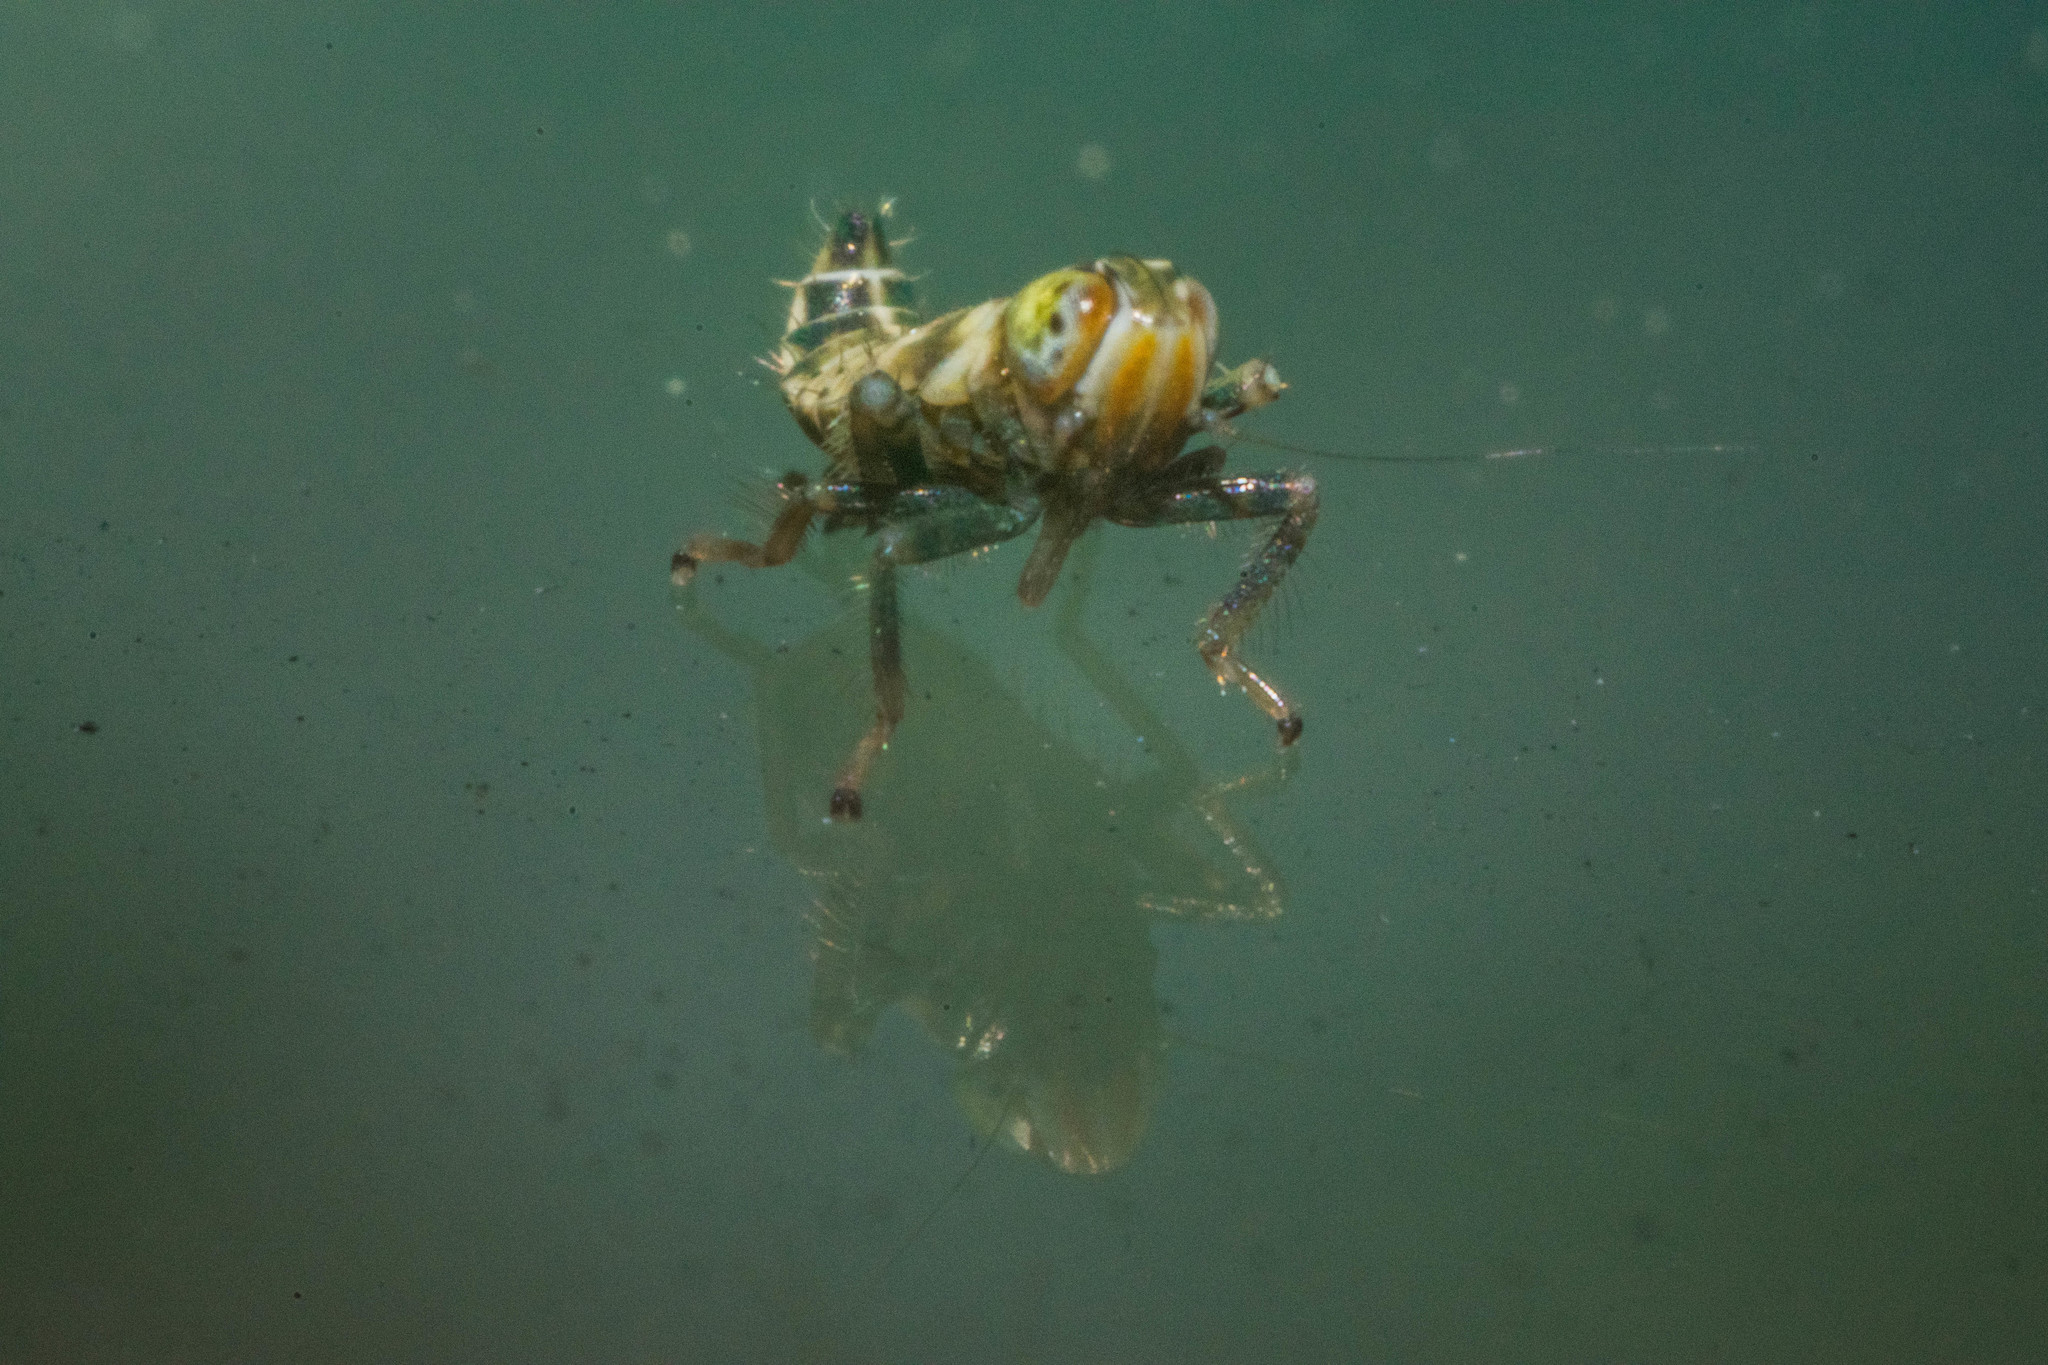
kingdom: Animalia
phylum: Arthropoda
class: Insecta
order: Hemiptera
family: Cicadellidae
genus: Jikradia
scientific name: Jikradia olitoria
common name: Coppery leafhopper
